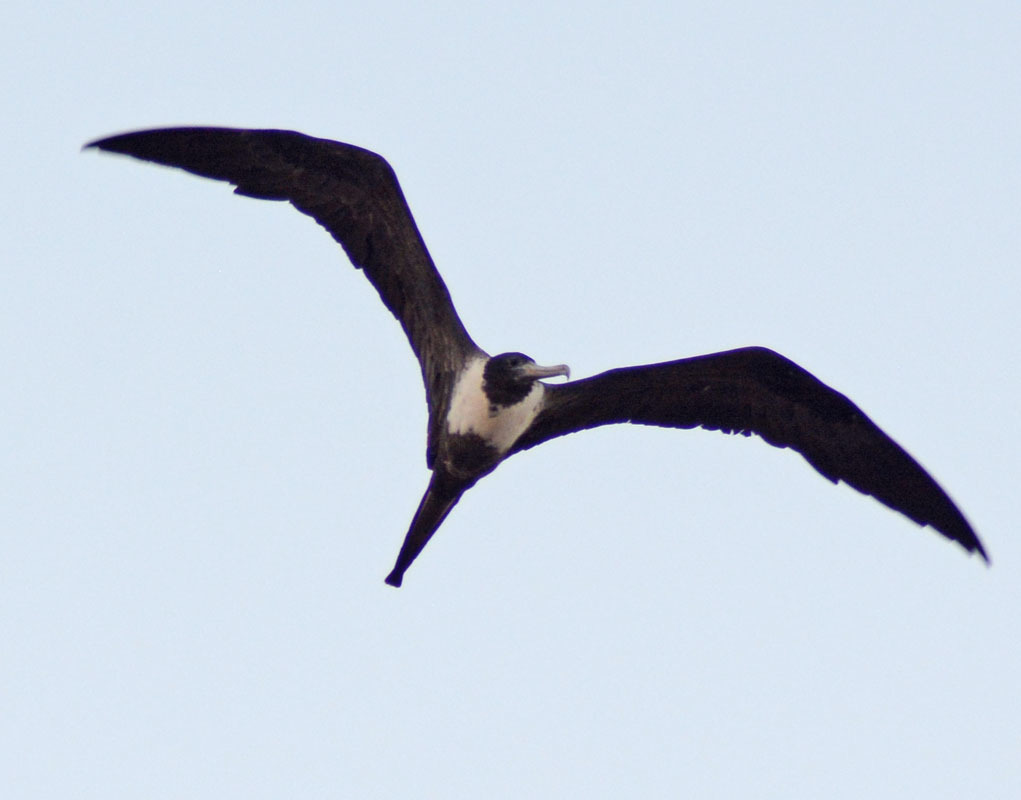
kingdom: Animalia
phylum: Chordata
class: Aves
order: Suliformes
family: Fregatidae
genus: Fregata
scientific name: Fregata magnificens
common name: Magnificent frigatebird
